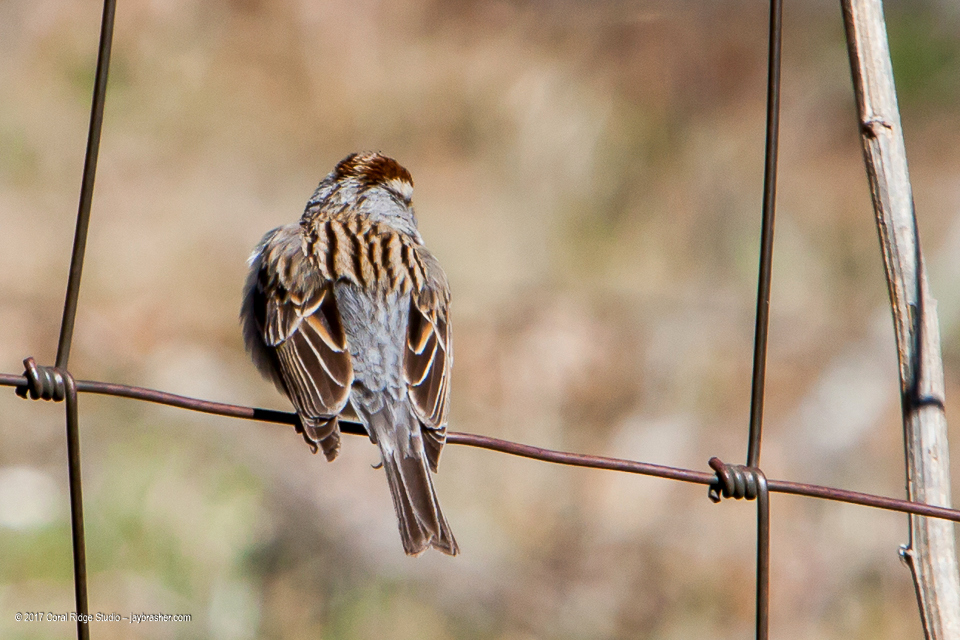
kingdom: Animalia
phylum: Chordata
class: Aves
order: Passeriformes
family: Passerellidae
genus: Spizella
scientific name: Spizella passerina
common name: Chipping sparrow
